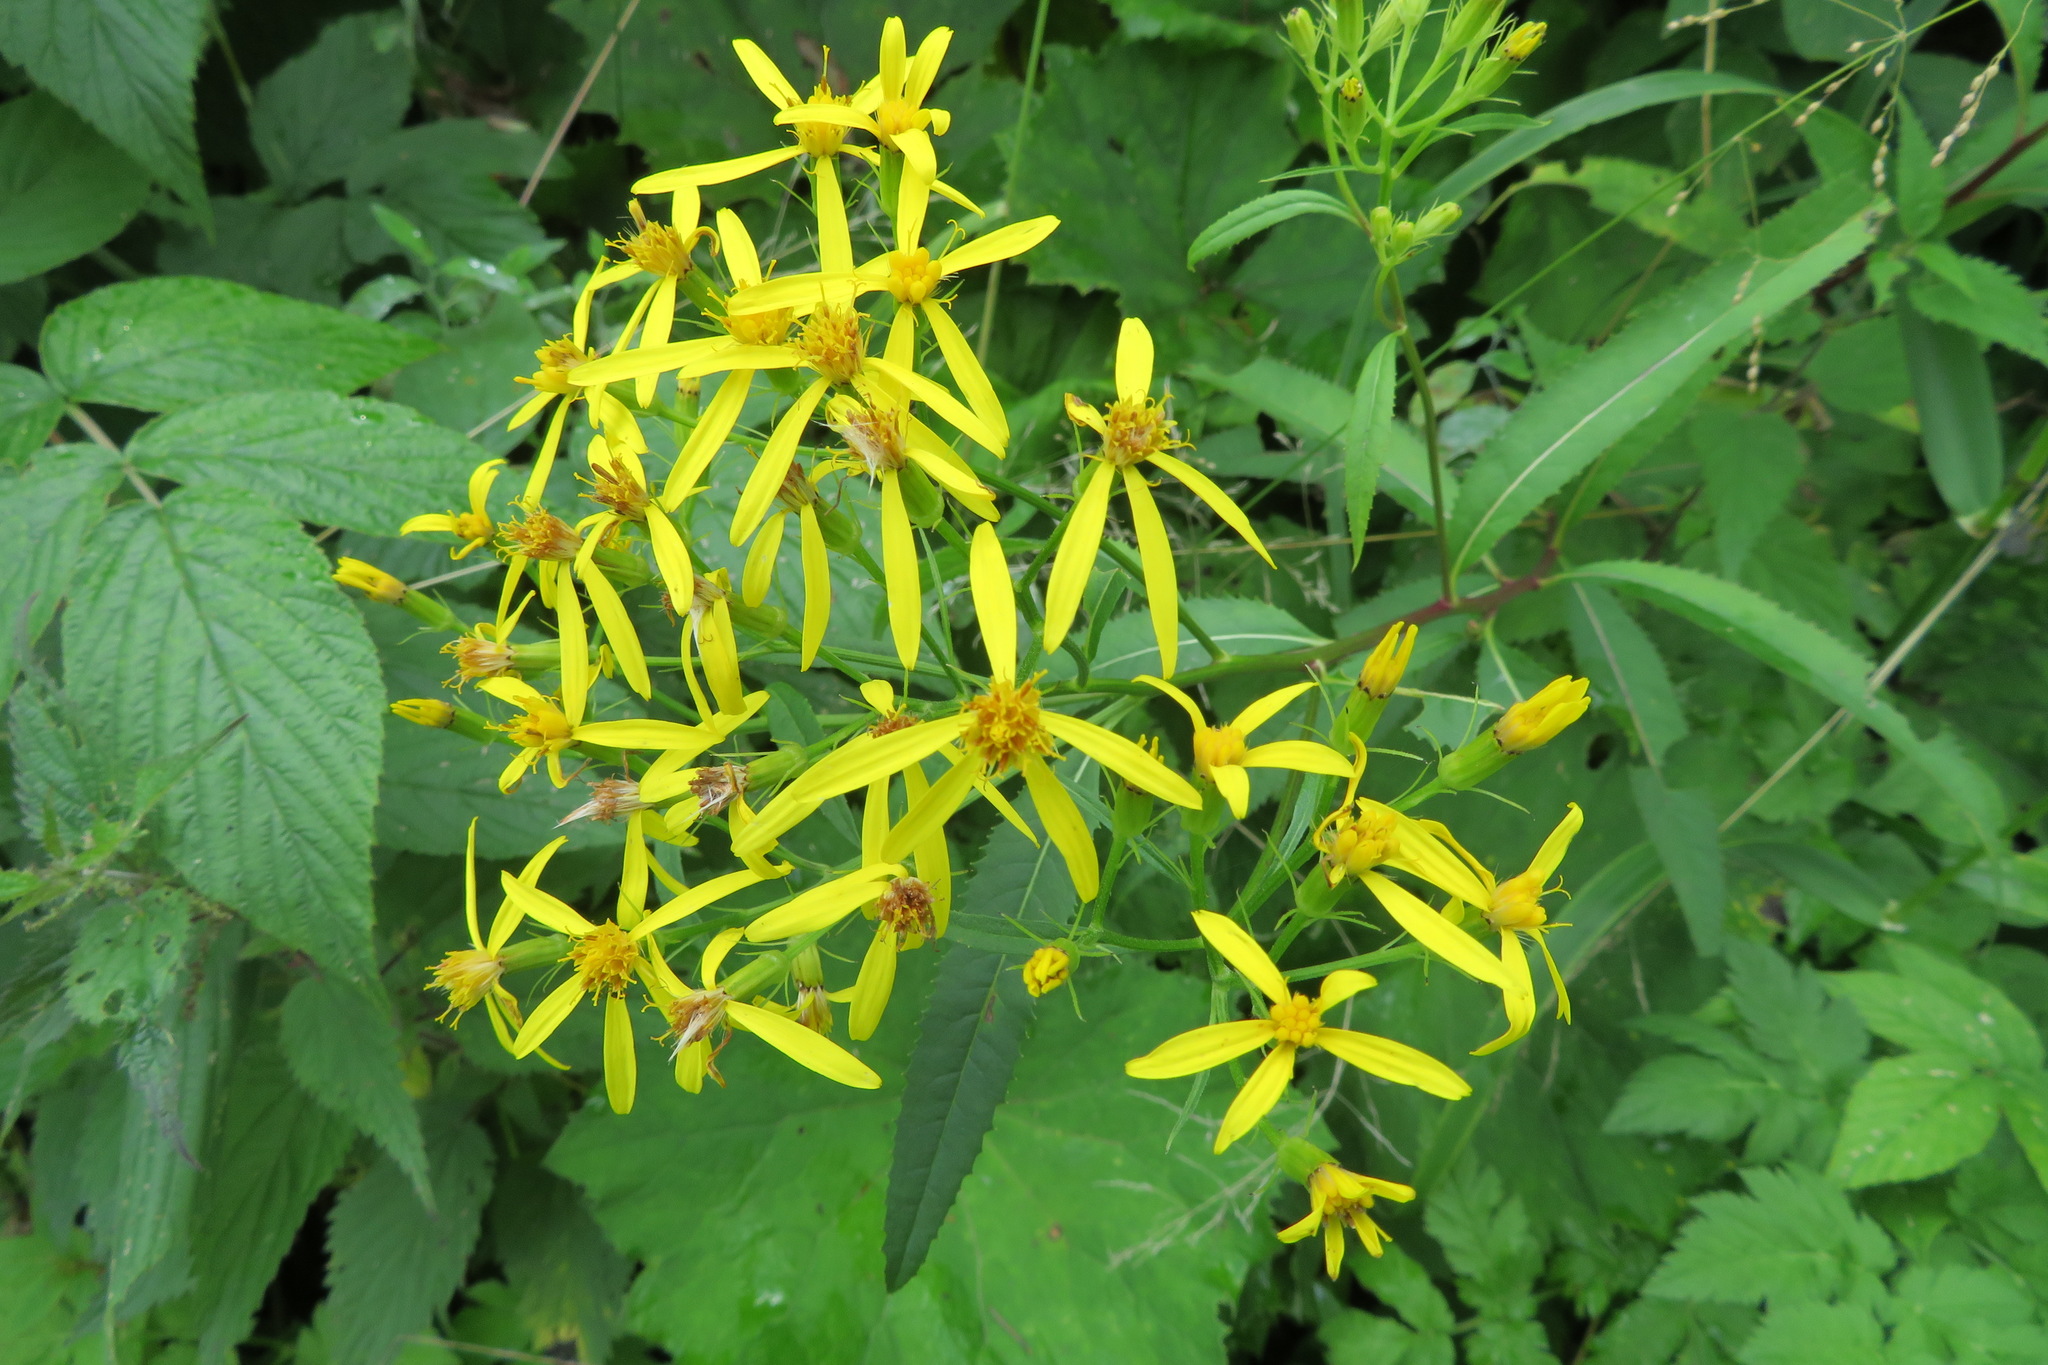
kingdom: Plantae
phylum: Tracheophyta
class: Magnoliopsida
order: Asterales
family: Asteraceae
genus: Senecio
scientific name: Senecio ovatus
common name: Wood ragwort
